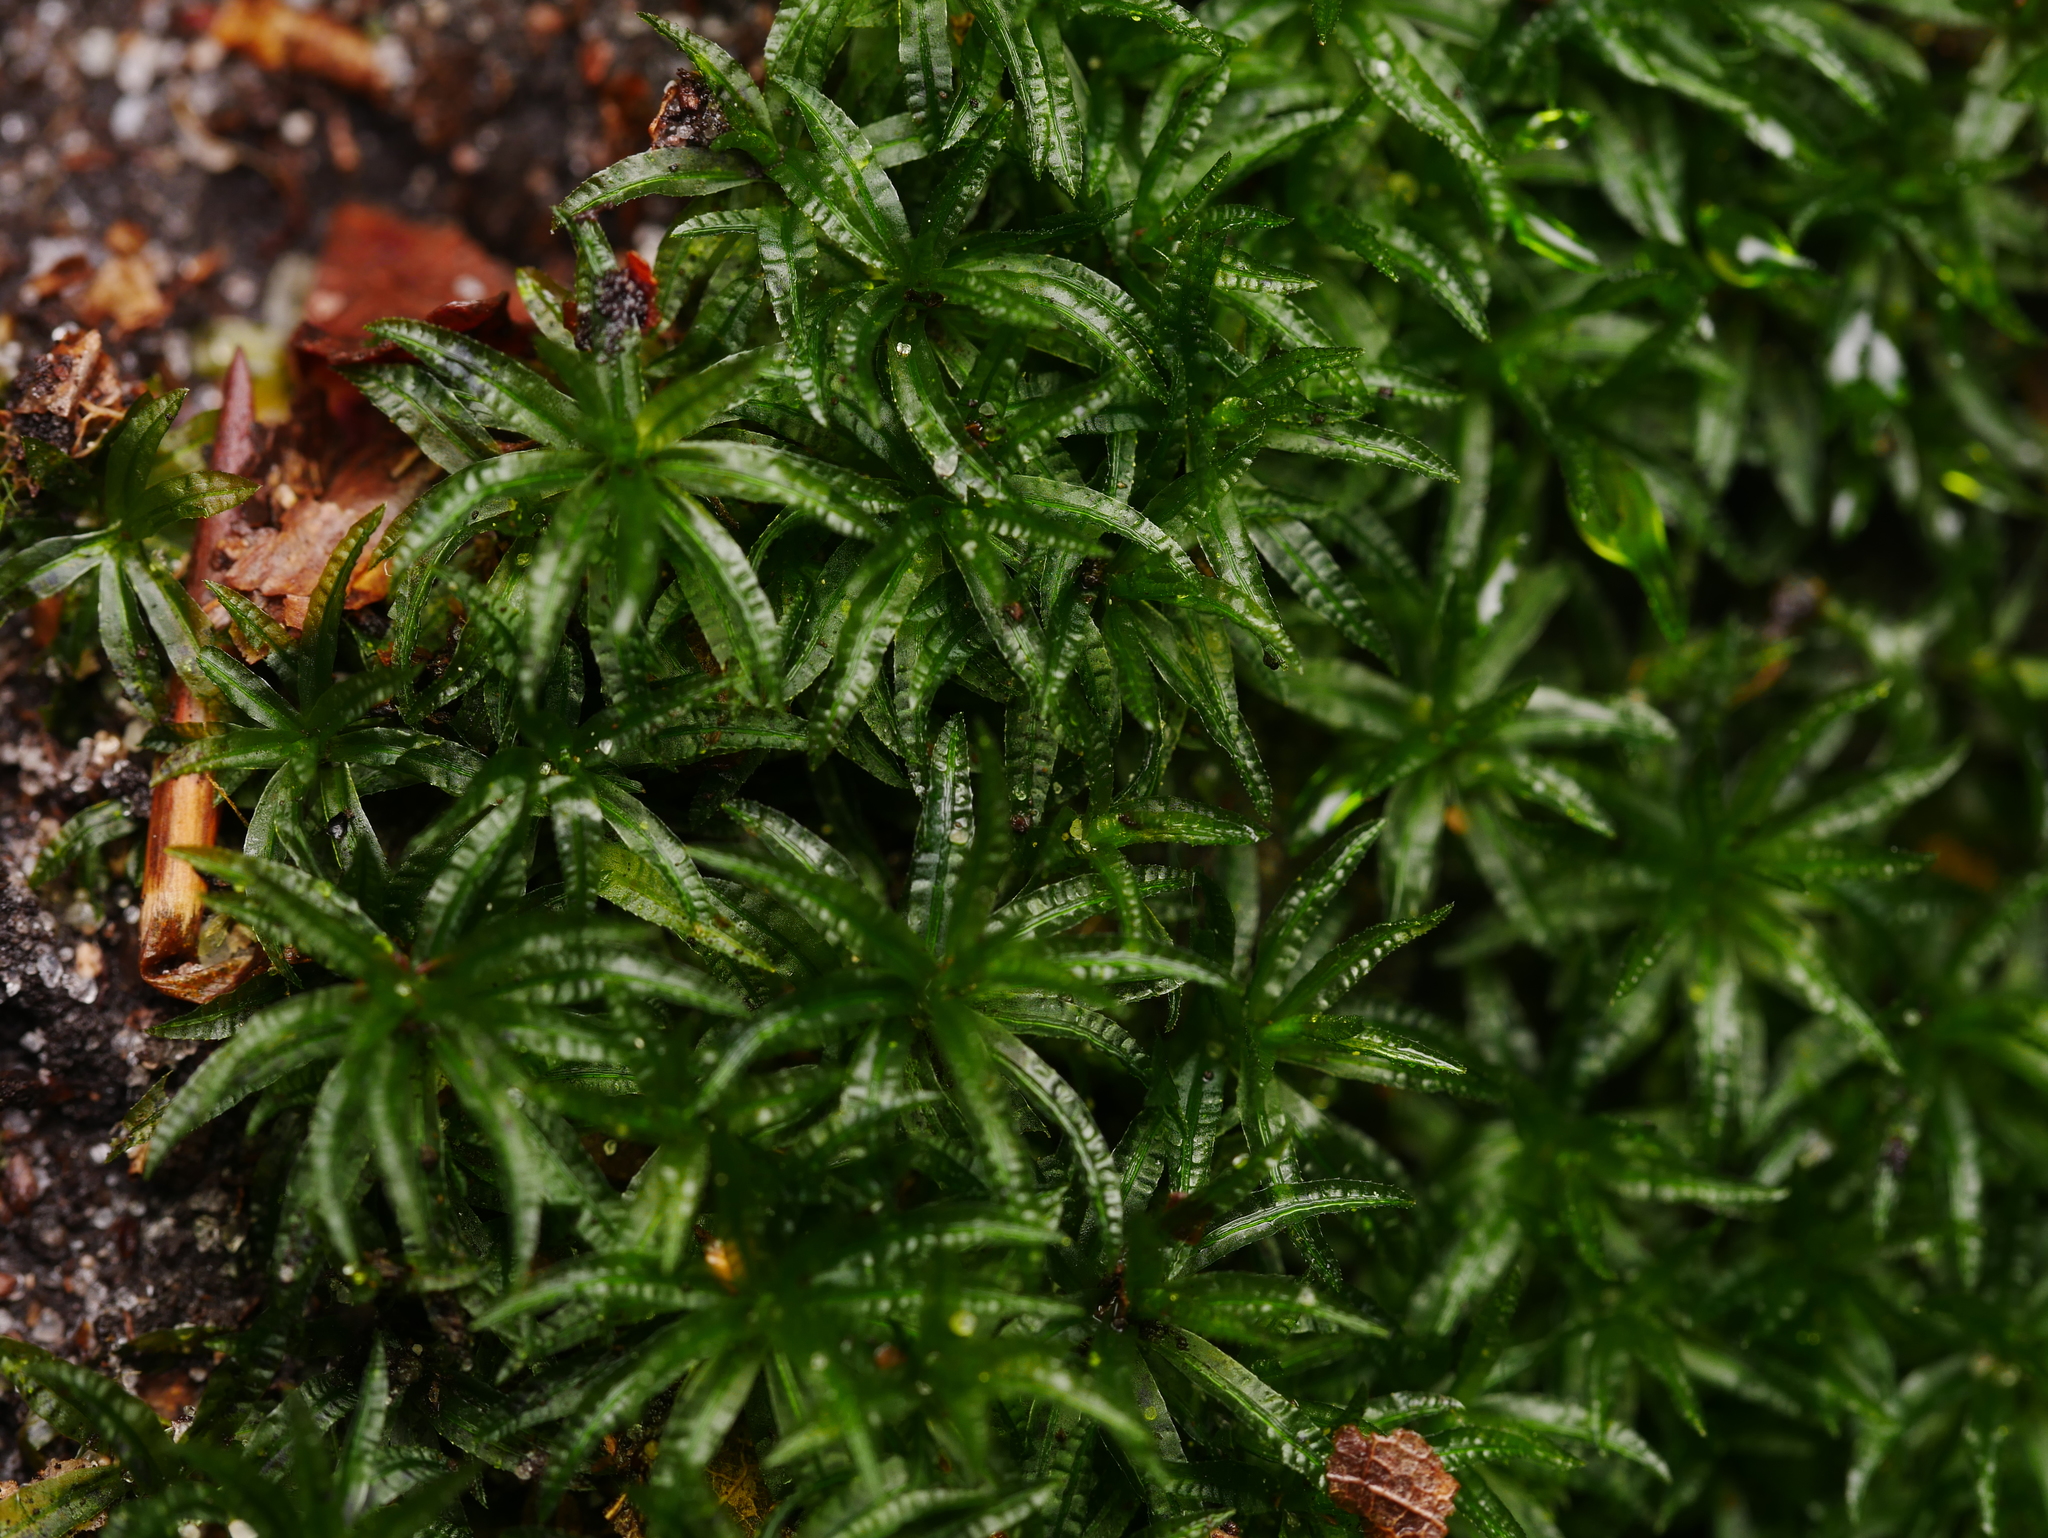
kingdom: Plantae
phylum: Bryophyta
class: Polytrichopsida
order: Polytrichales
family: Polytrichaceae
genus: Atrichum
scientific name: Atrichum undulatum
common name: Common smoothcap
